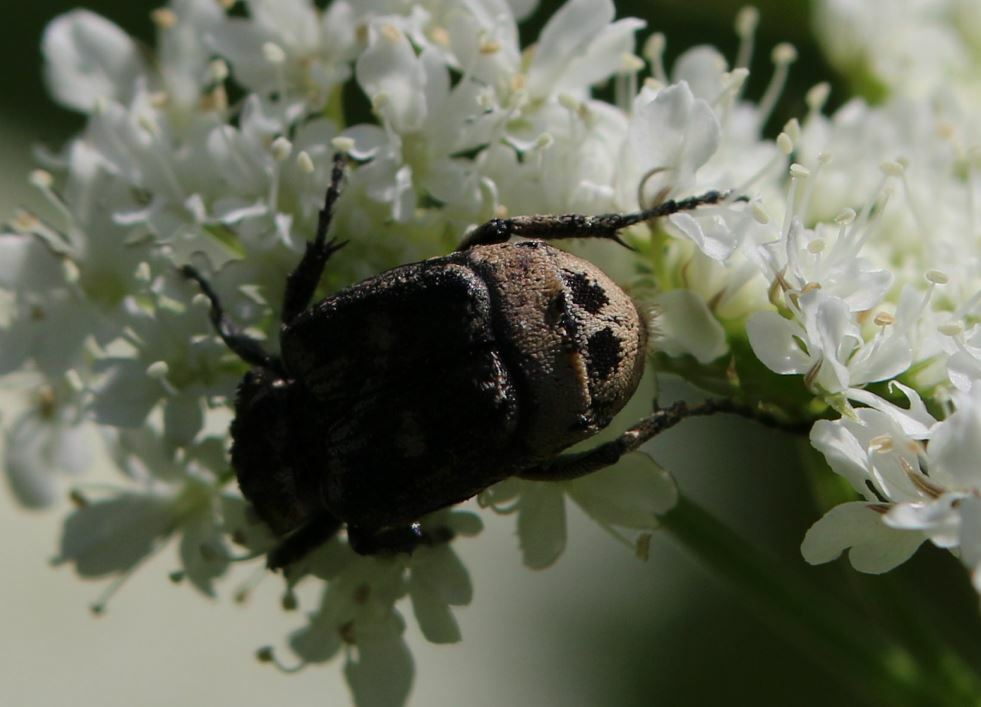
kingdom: Animalia
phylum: Arthropoda
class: Insecta
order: Coleoptera
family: Scarabaeidae
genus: Valgus
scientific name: Valgus hemipterus
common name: Bug flower chafer
